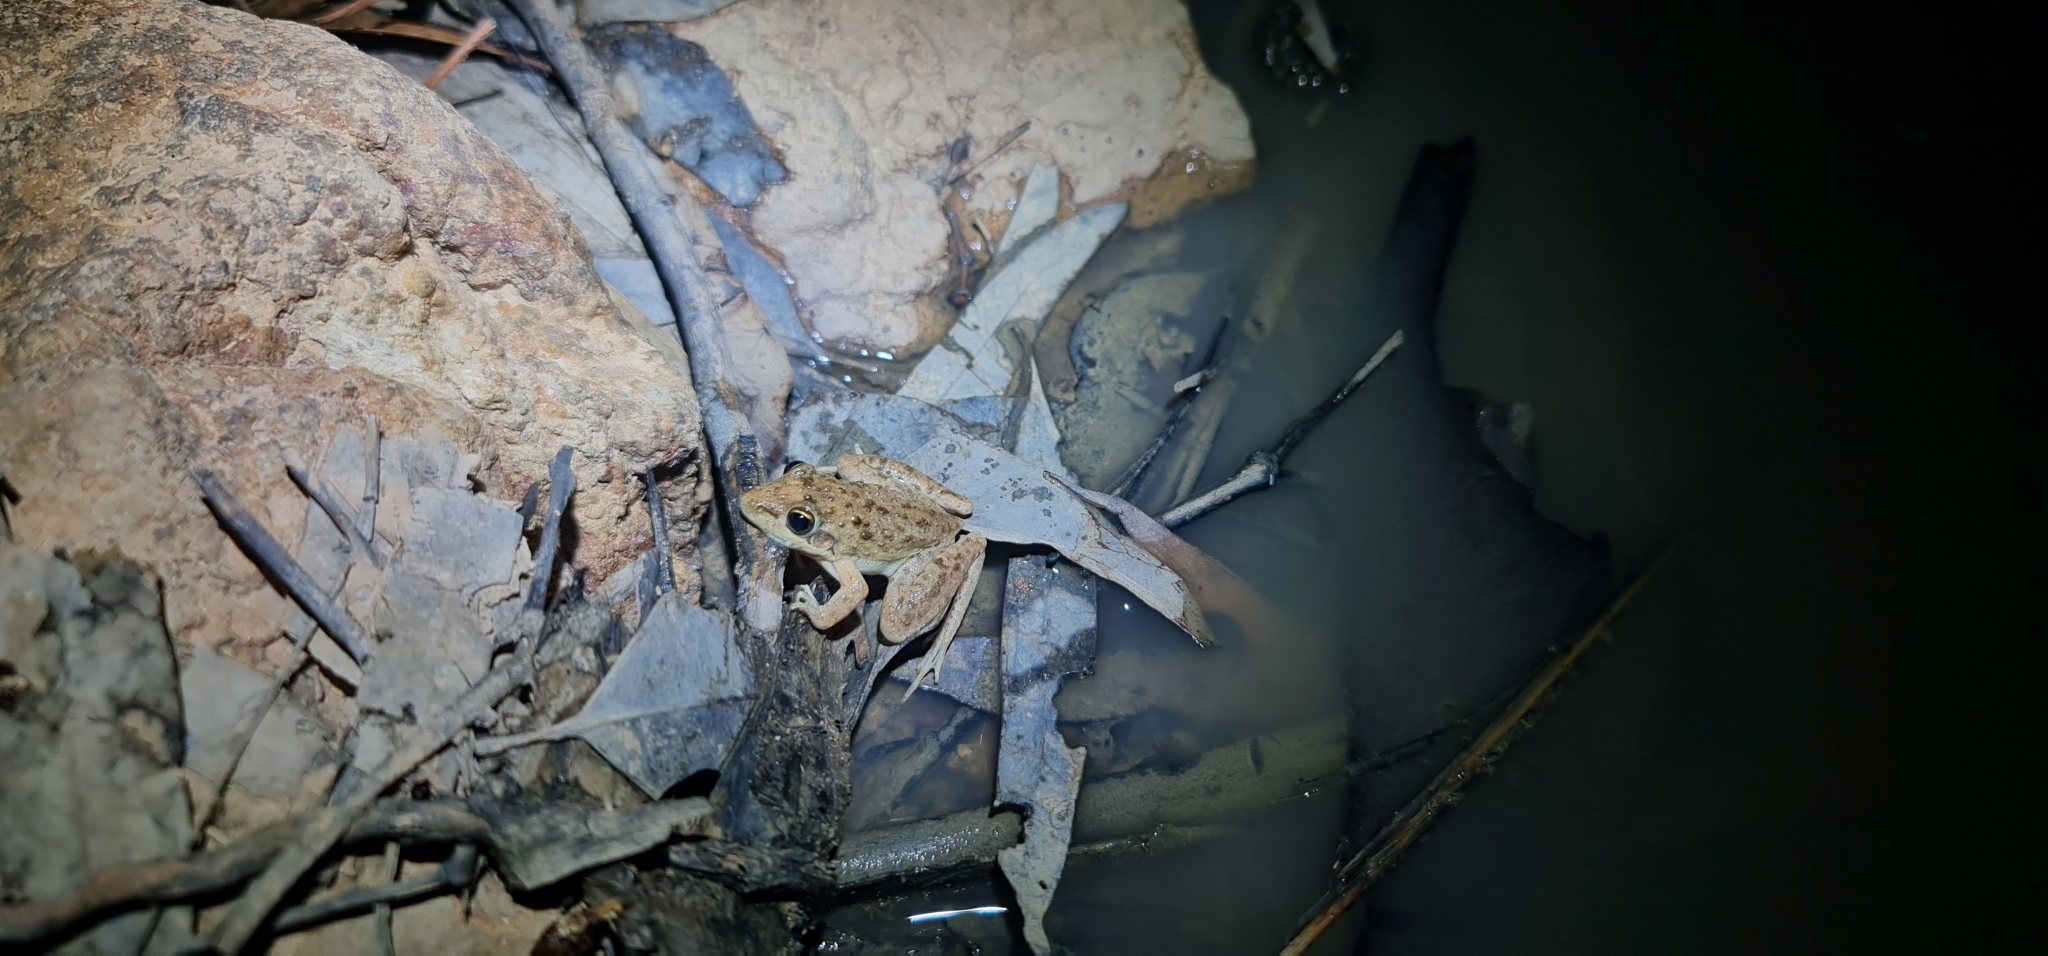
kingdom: Animalia
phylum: Chordata
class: Amphibia
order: Anura
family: Pelodryadidae
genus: Litoria
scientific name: Litoria inermis
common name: Bumpy rocket frog
